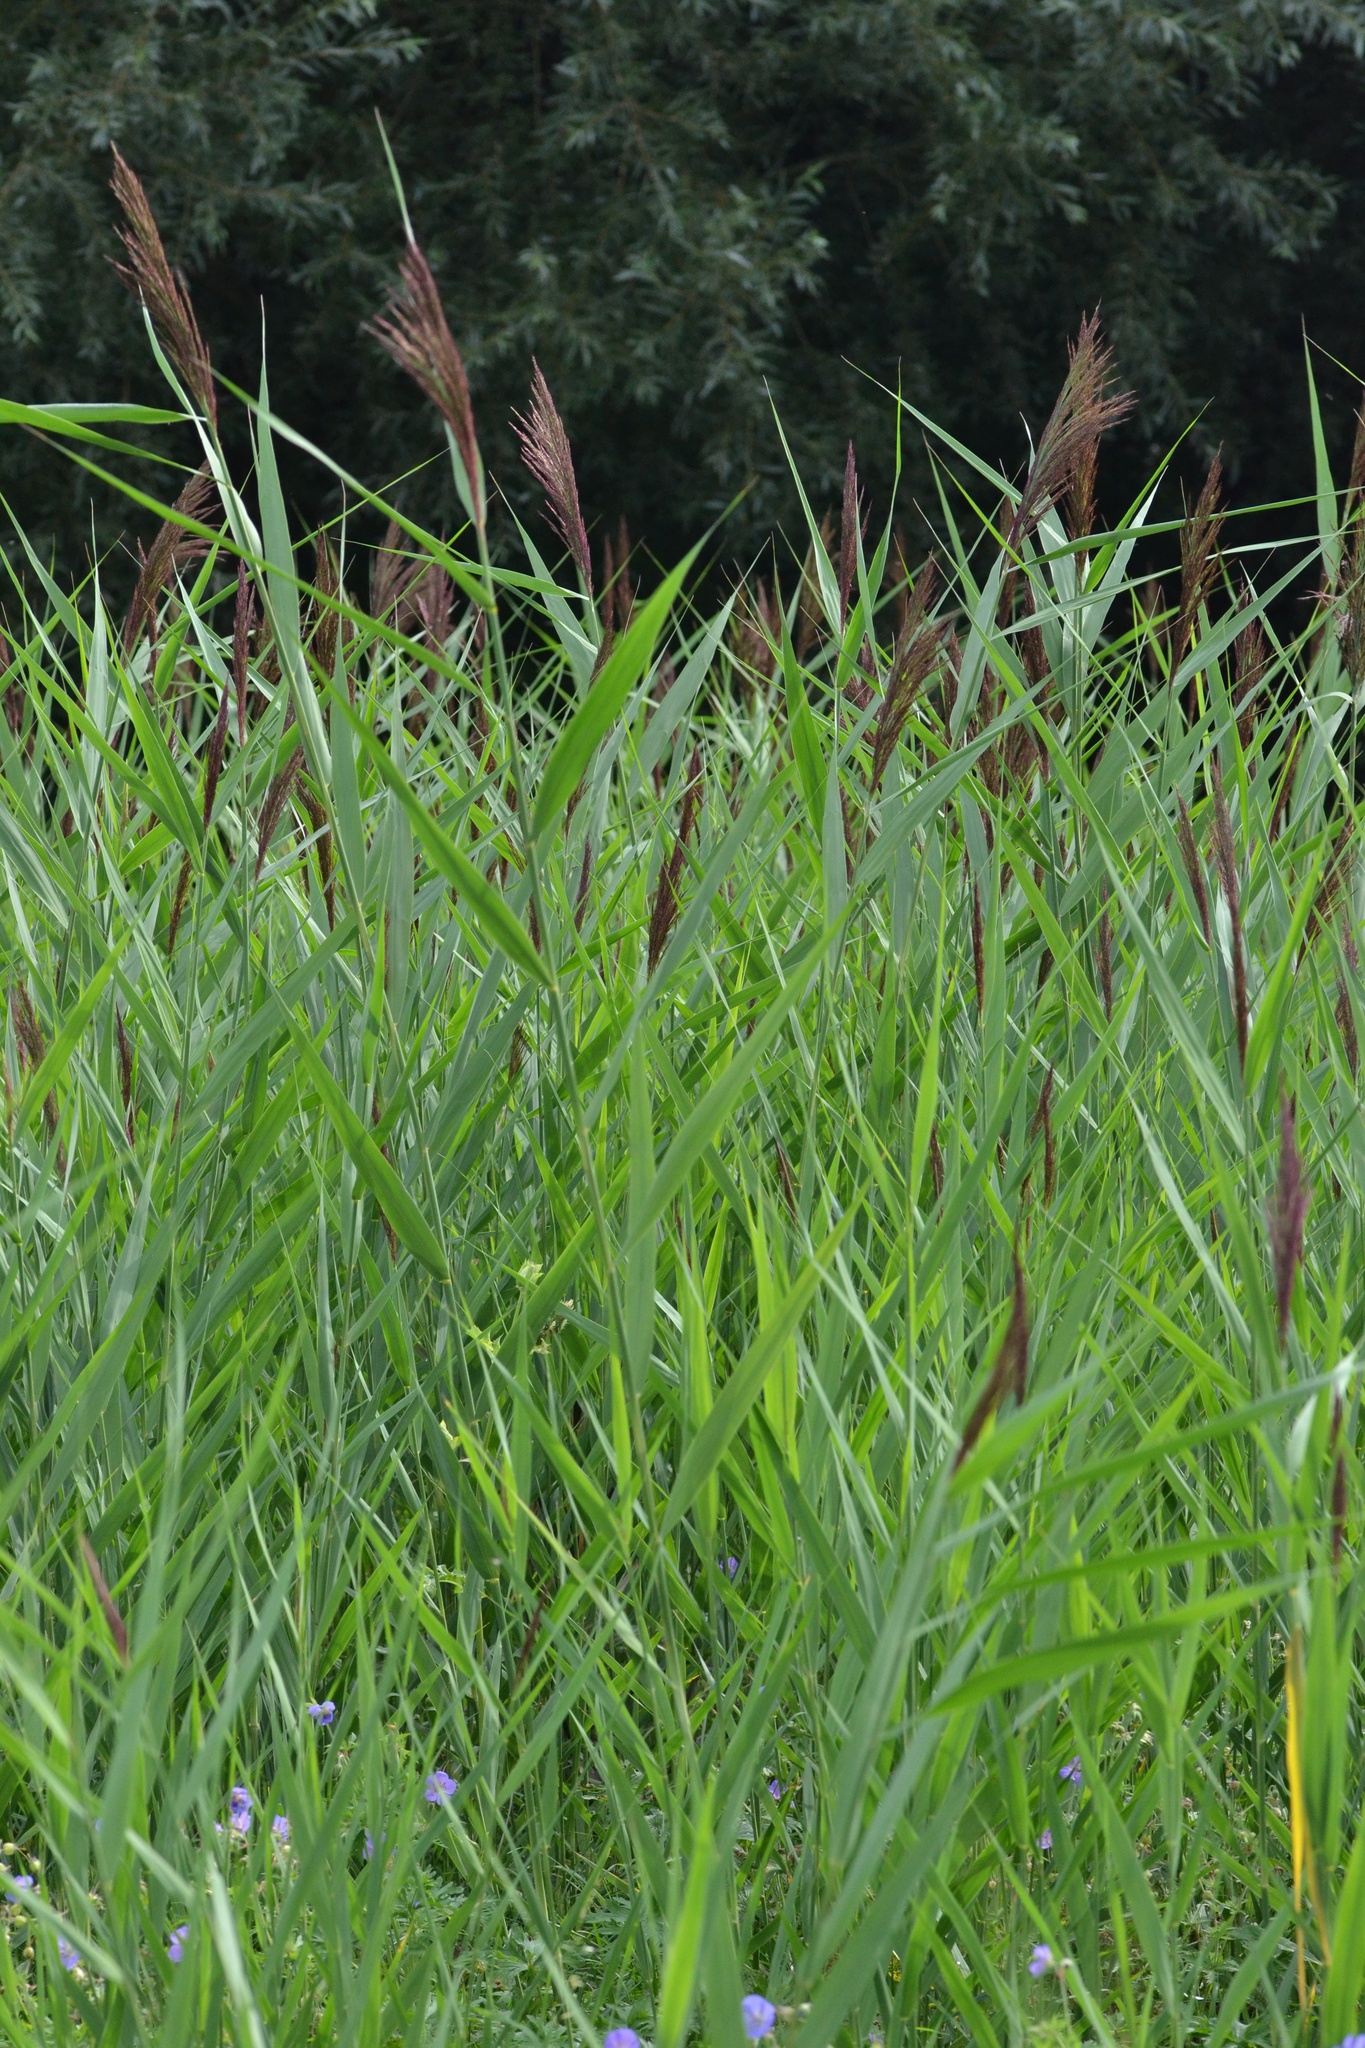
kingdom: Plantae
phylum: Tracheophyta
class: Liliopsida
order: Poales
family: Poaceae
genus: Phragmites
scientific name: Phragmites australis
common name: Common reed
